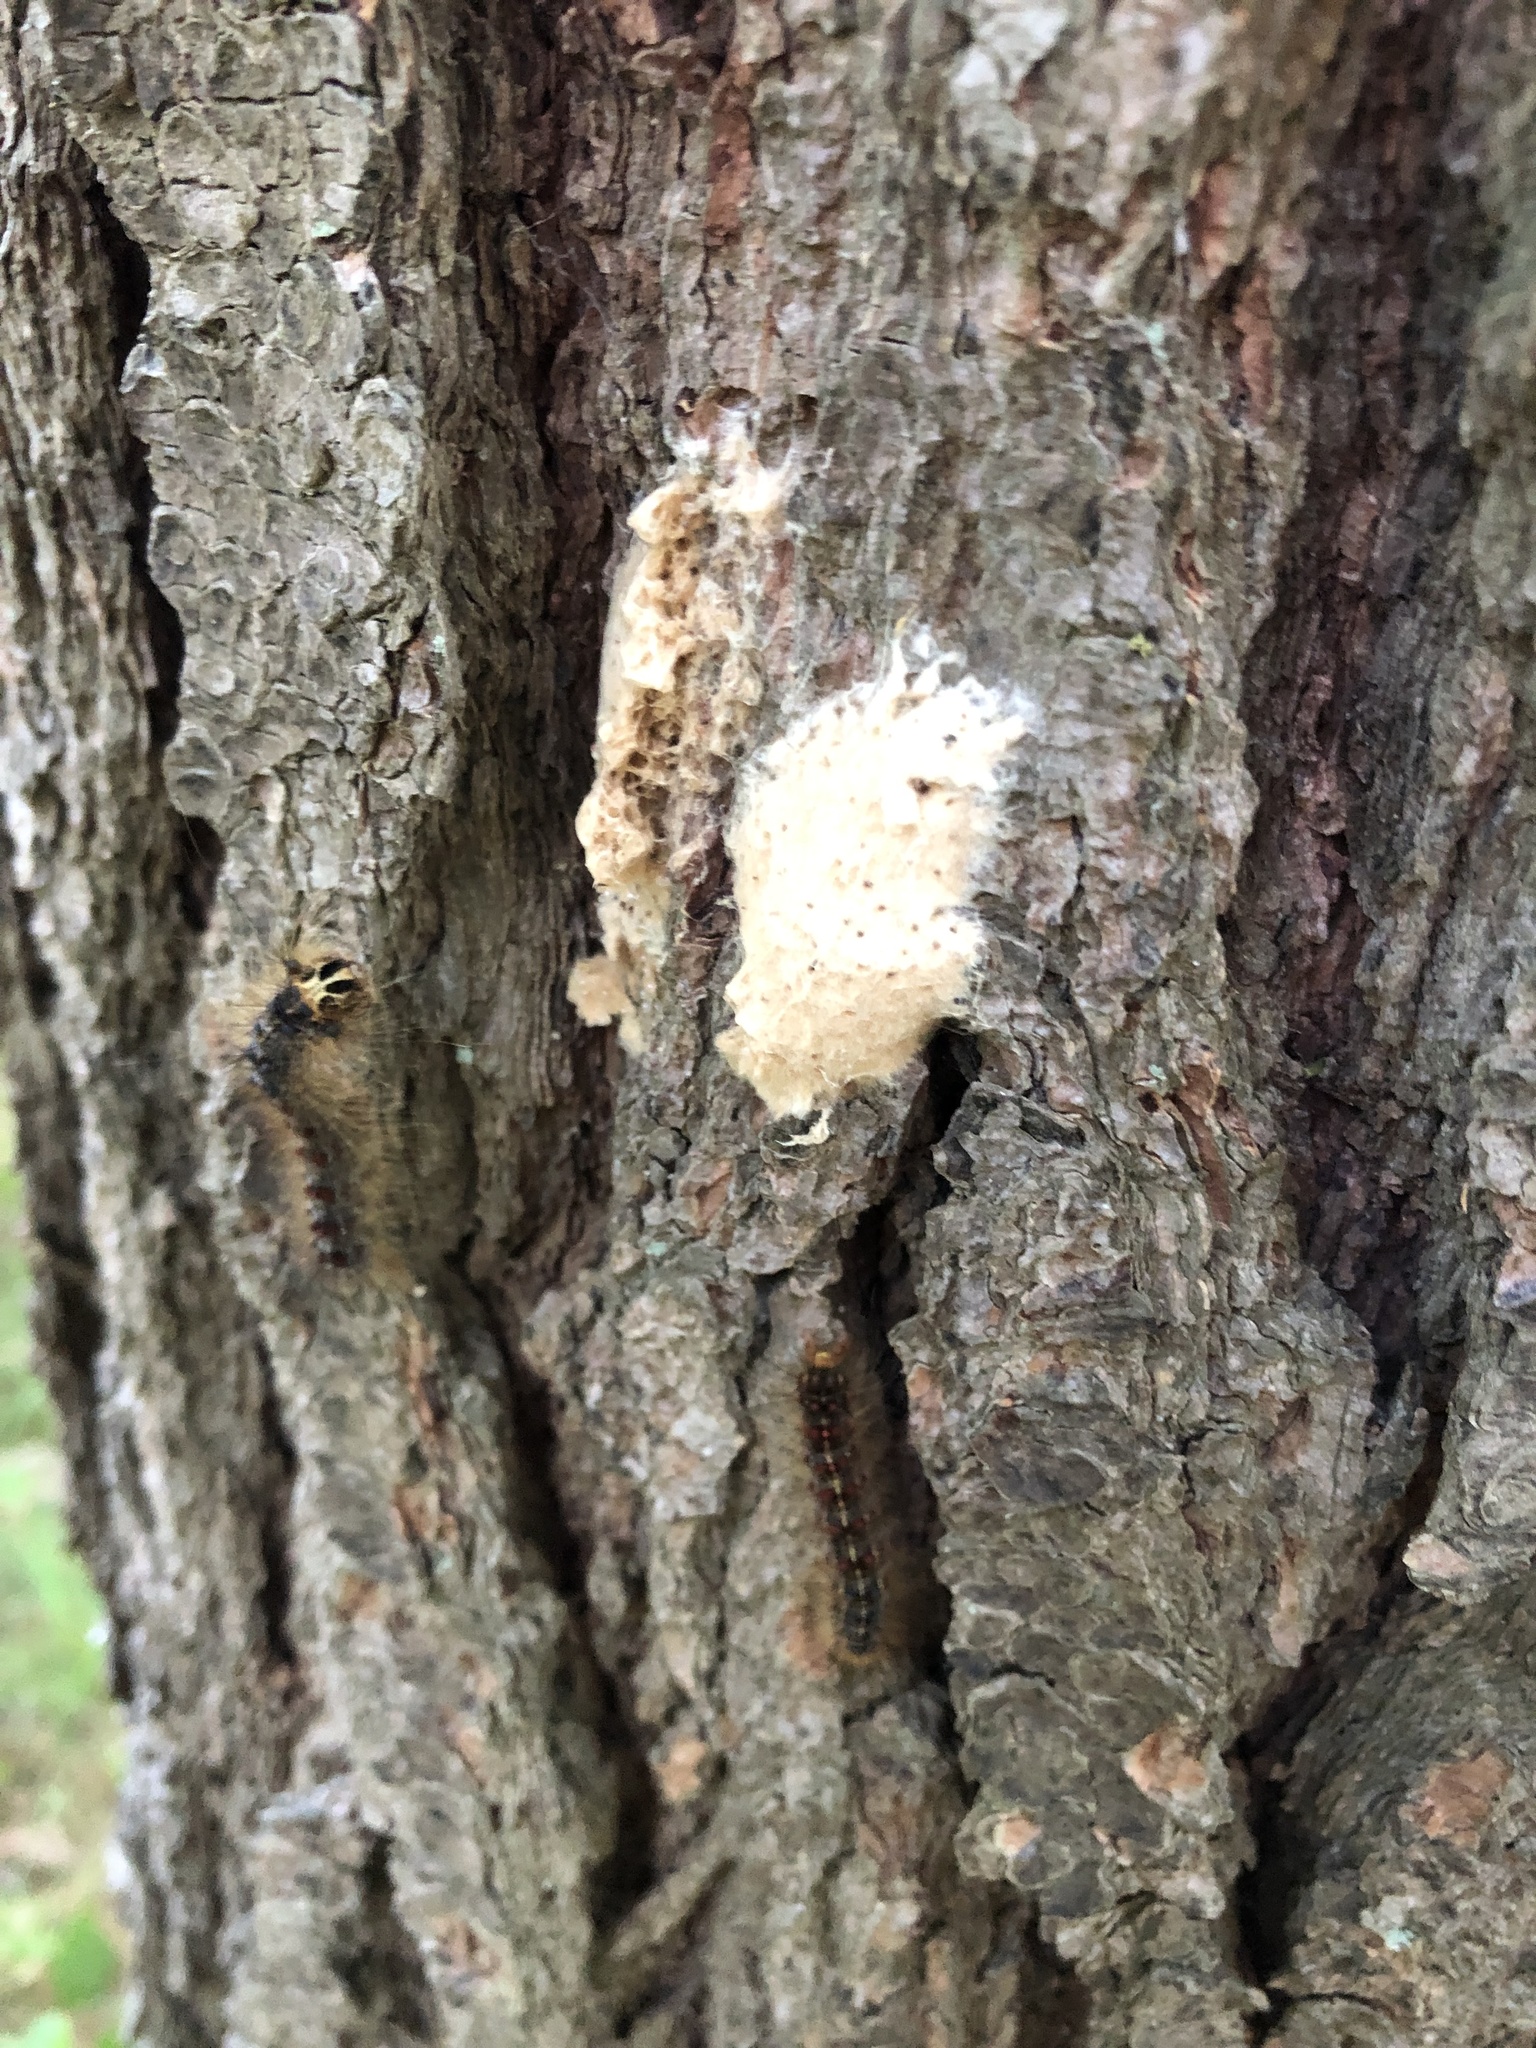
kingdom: Animalia
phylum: Arthropoda
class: Insecta
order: Lepidoptera
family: Erebidae
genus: Lymantria
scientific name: Lymantria dispar
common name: Gypsy moth
